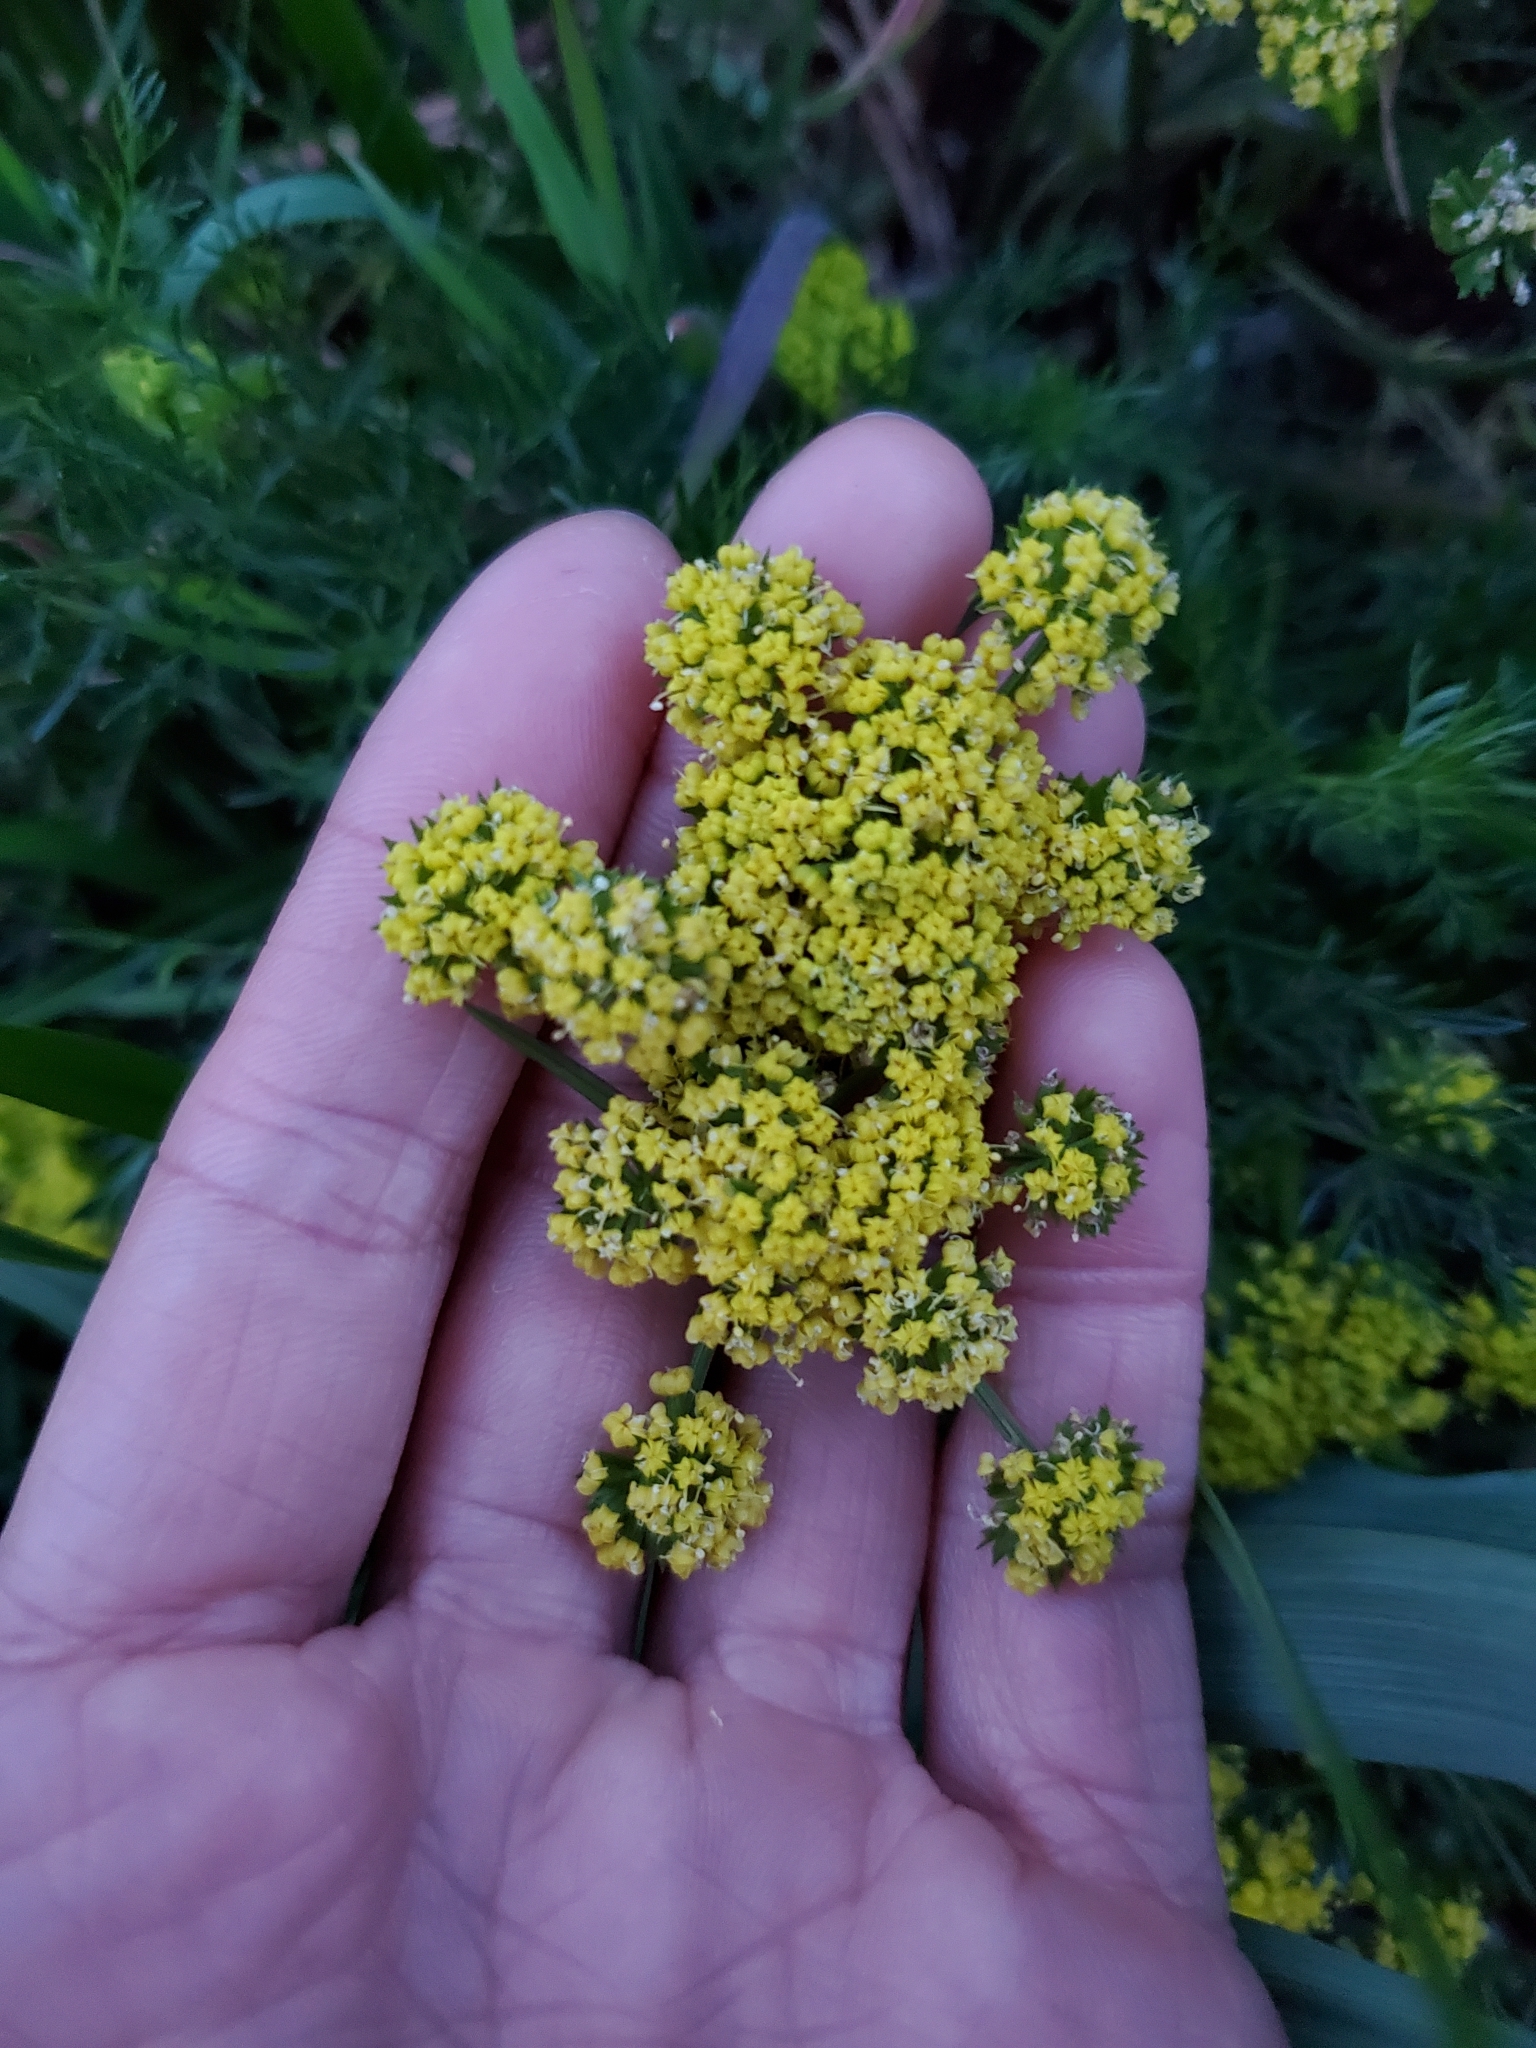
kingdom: Plantae
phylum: Tracheophyta
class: Magnoliopsida
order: Apiales
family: Apiaceae
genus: Lomatium
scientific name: Lomatium utriculatum
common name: Fine-leaf desert-parsley
